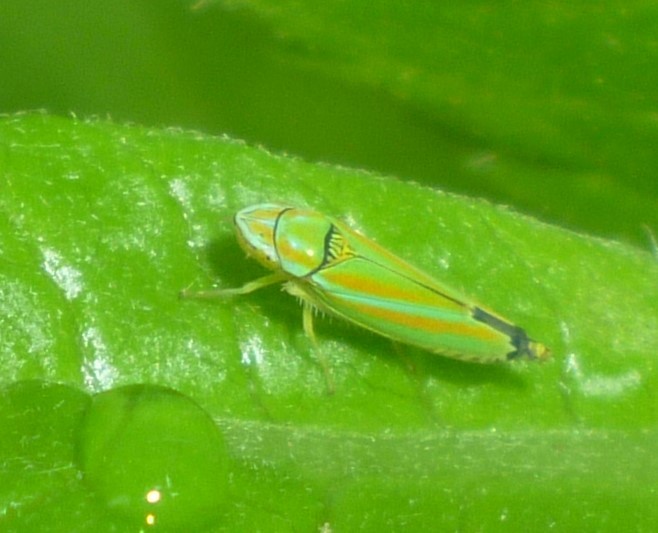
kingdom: Animalia
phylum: Arthropoda
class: Insecta
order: Hemiptera
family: Cicadellidae
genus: Graphocephala
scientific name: Graphocephala versuta
